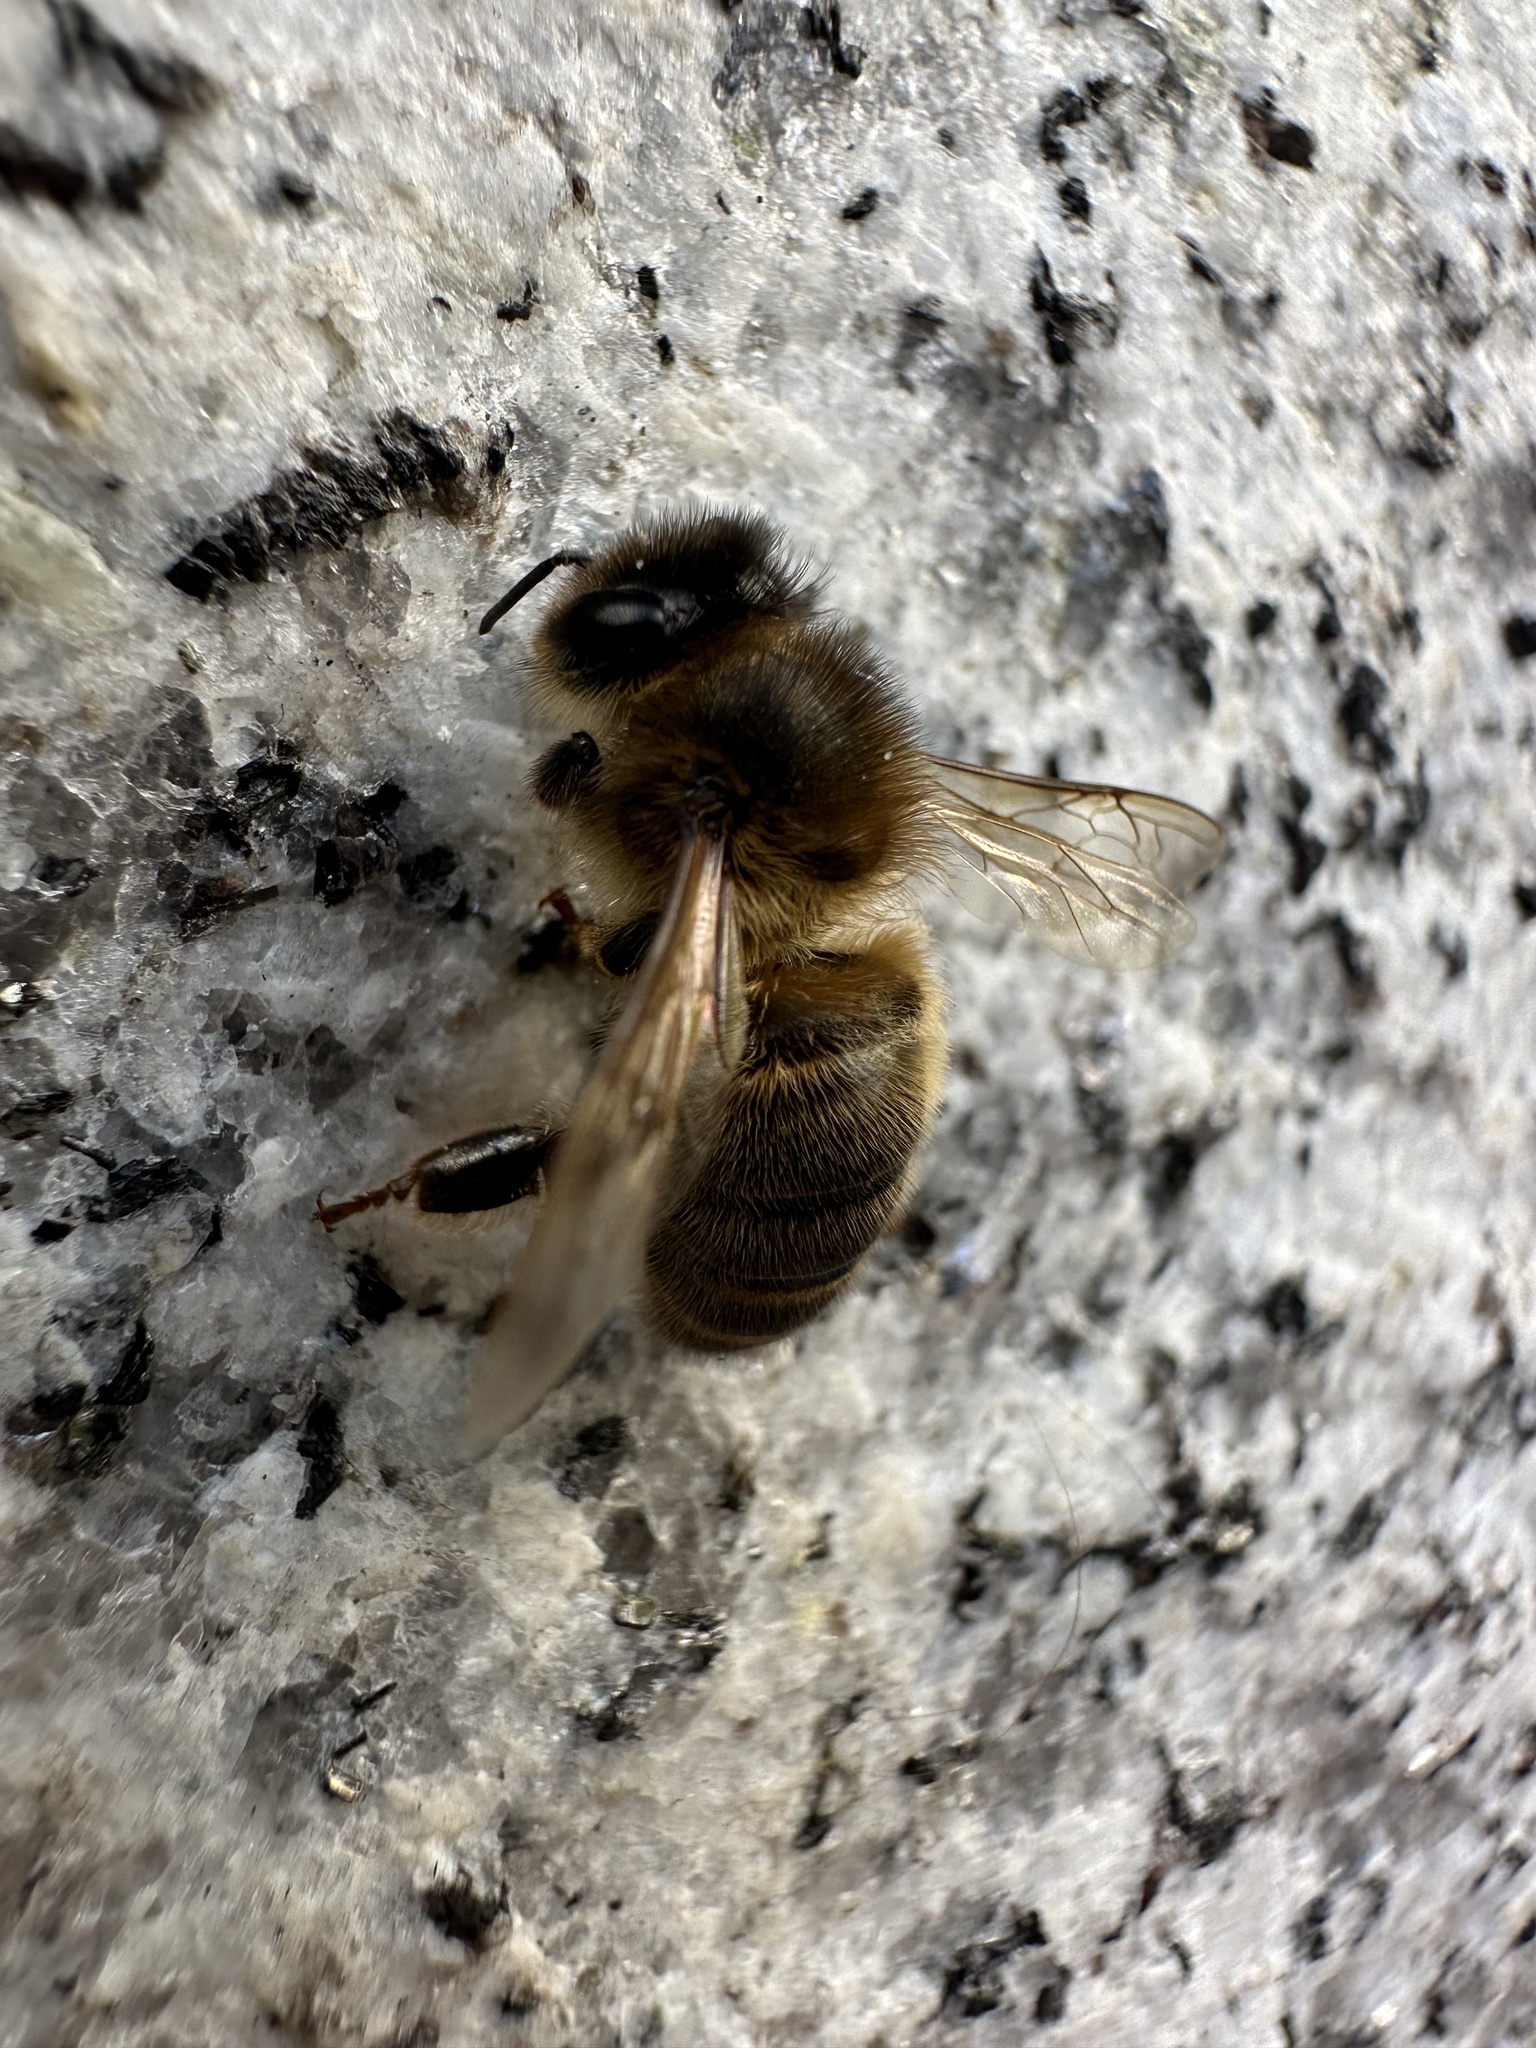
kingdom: Animalia
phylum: Arthropoda
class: Insecta
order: Hymenoptera
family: Apidae
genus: Apis
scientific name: Apis mellifera
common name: Honey bee
